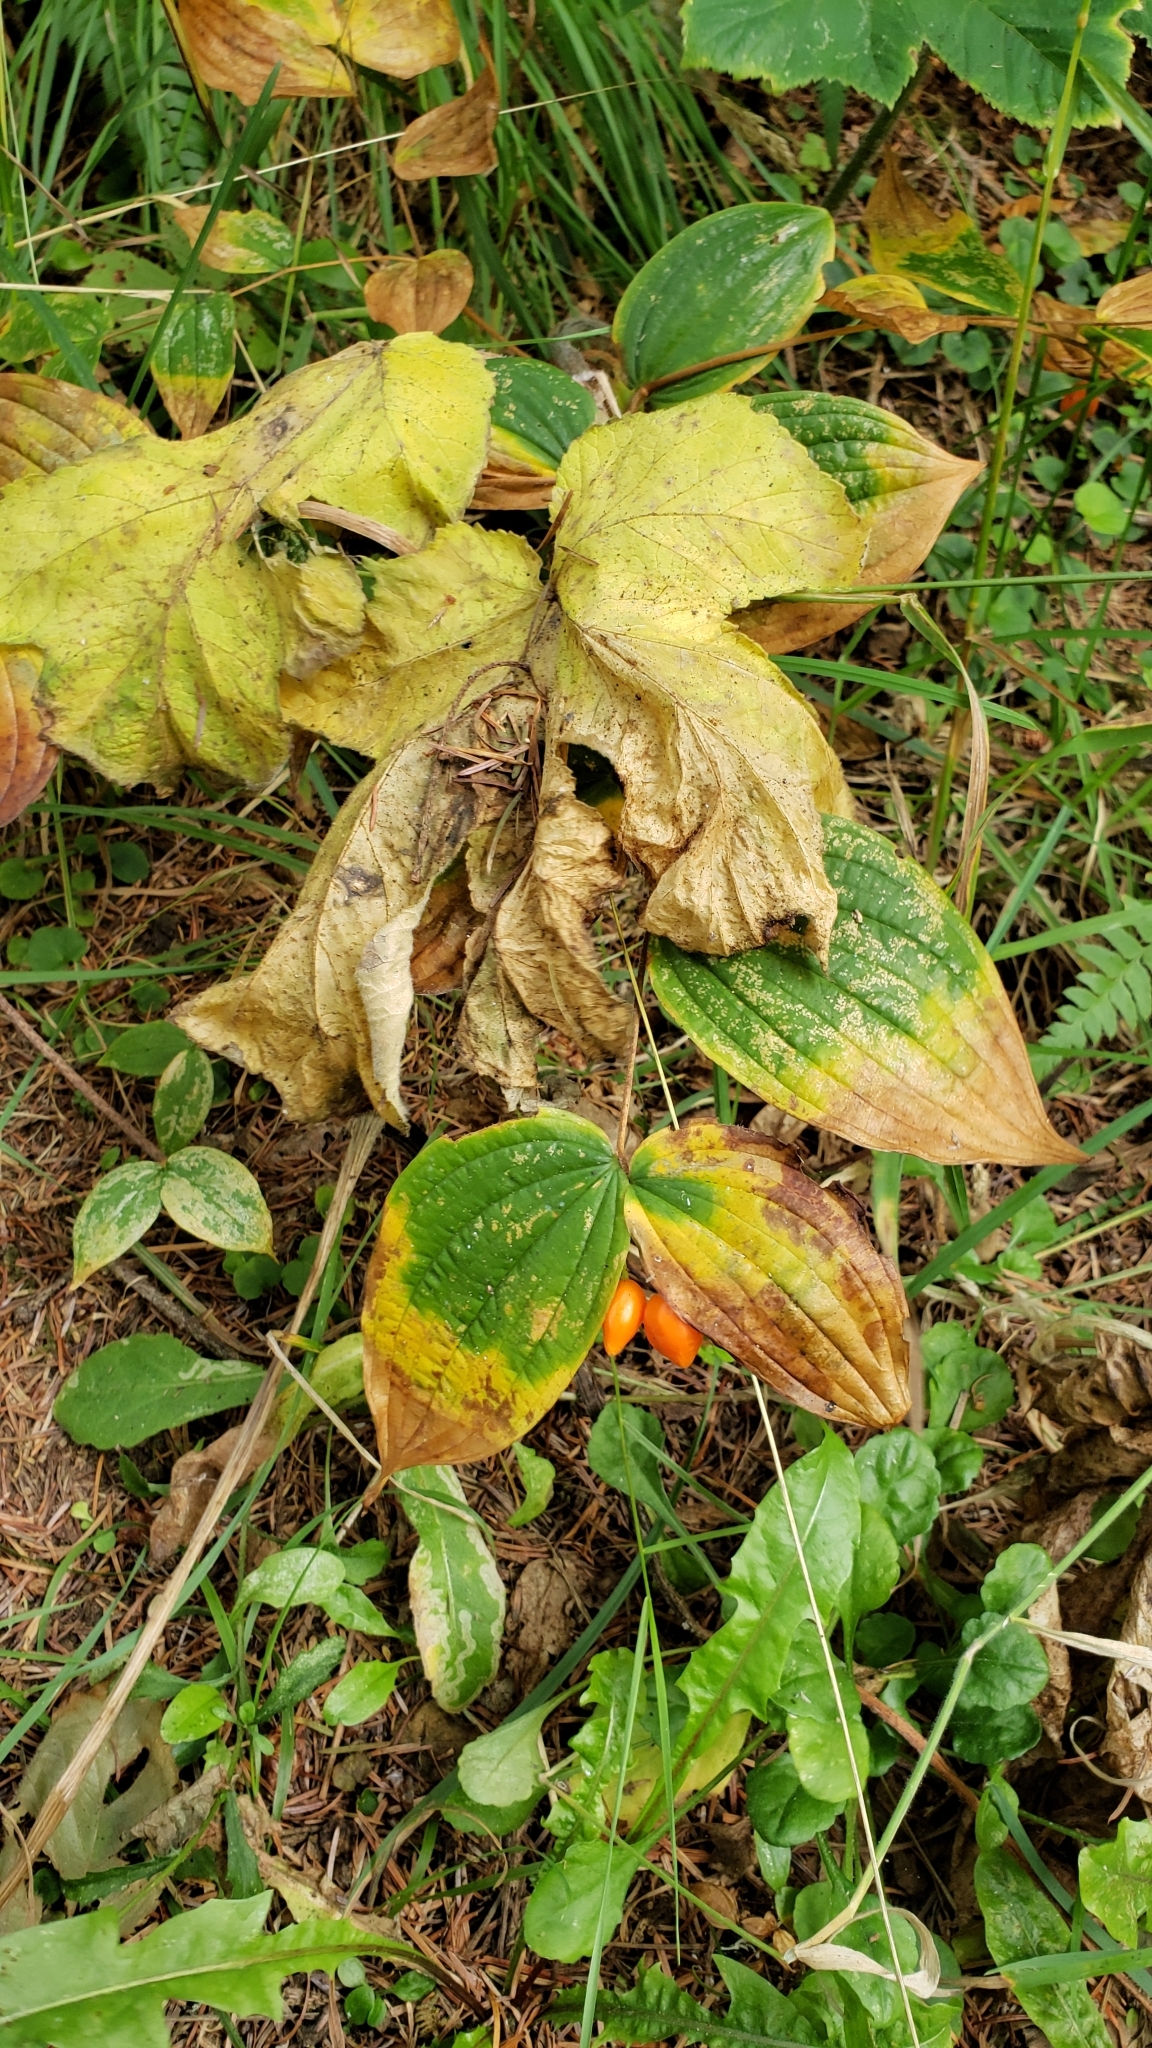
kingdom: Plantae
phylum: Tracheophyta
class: Liliopsida
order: Liliales
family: Liliaceae
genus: Prosartes
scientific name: Prosartes smithii
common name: Fairy-lantern
